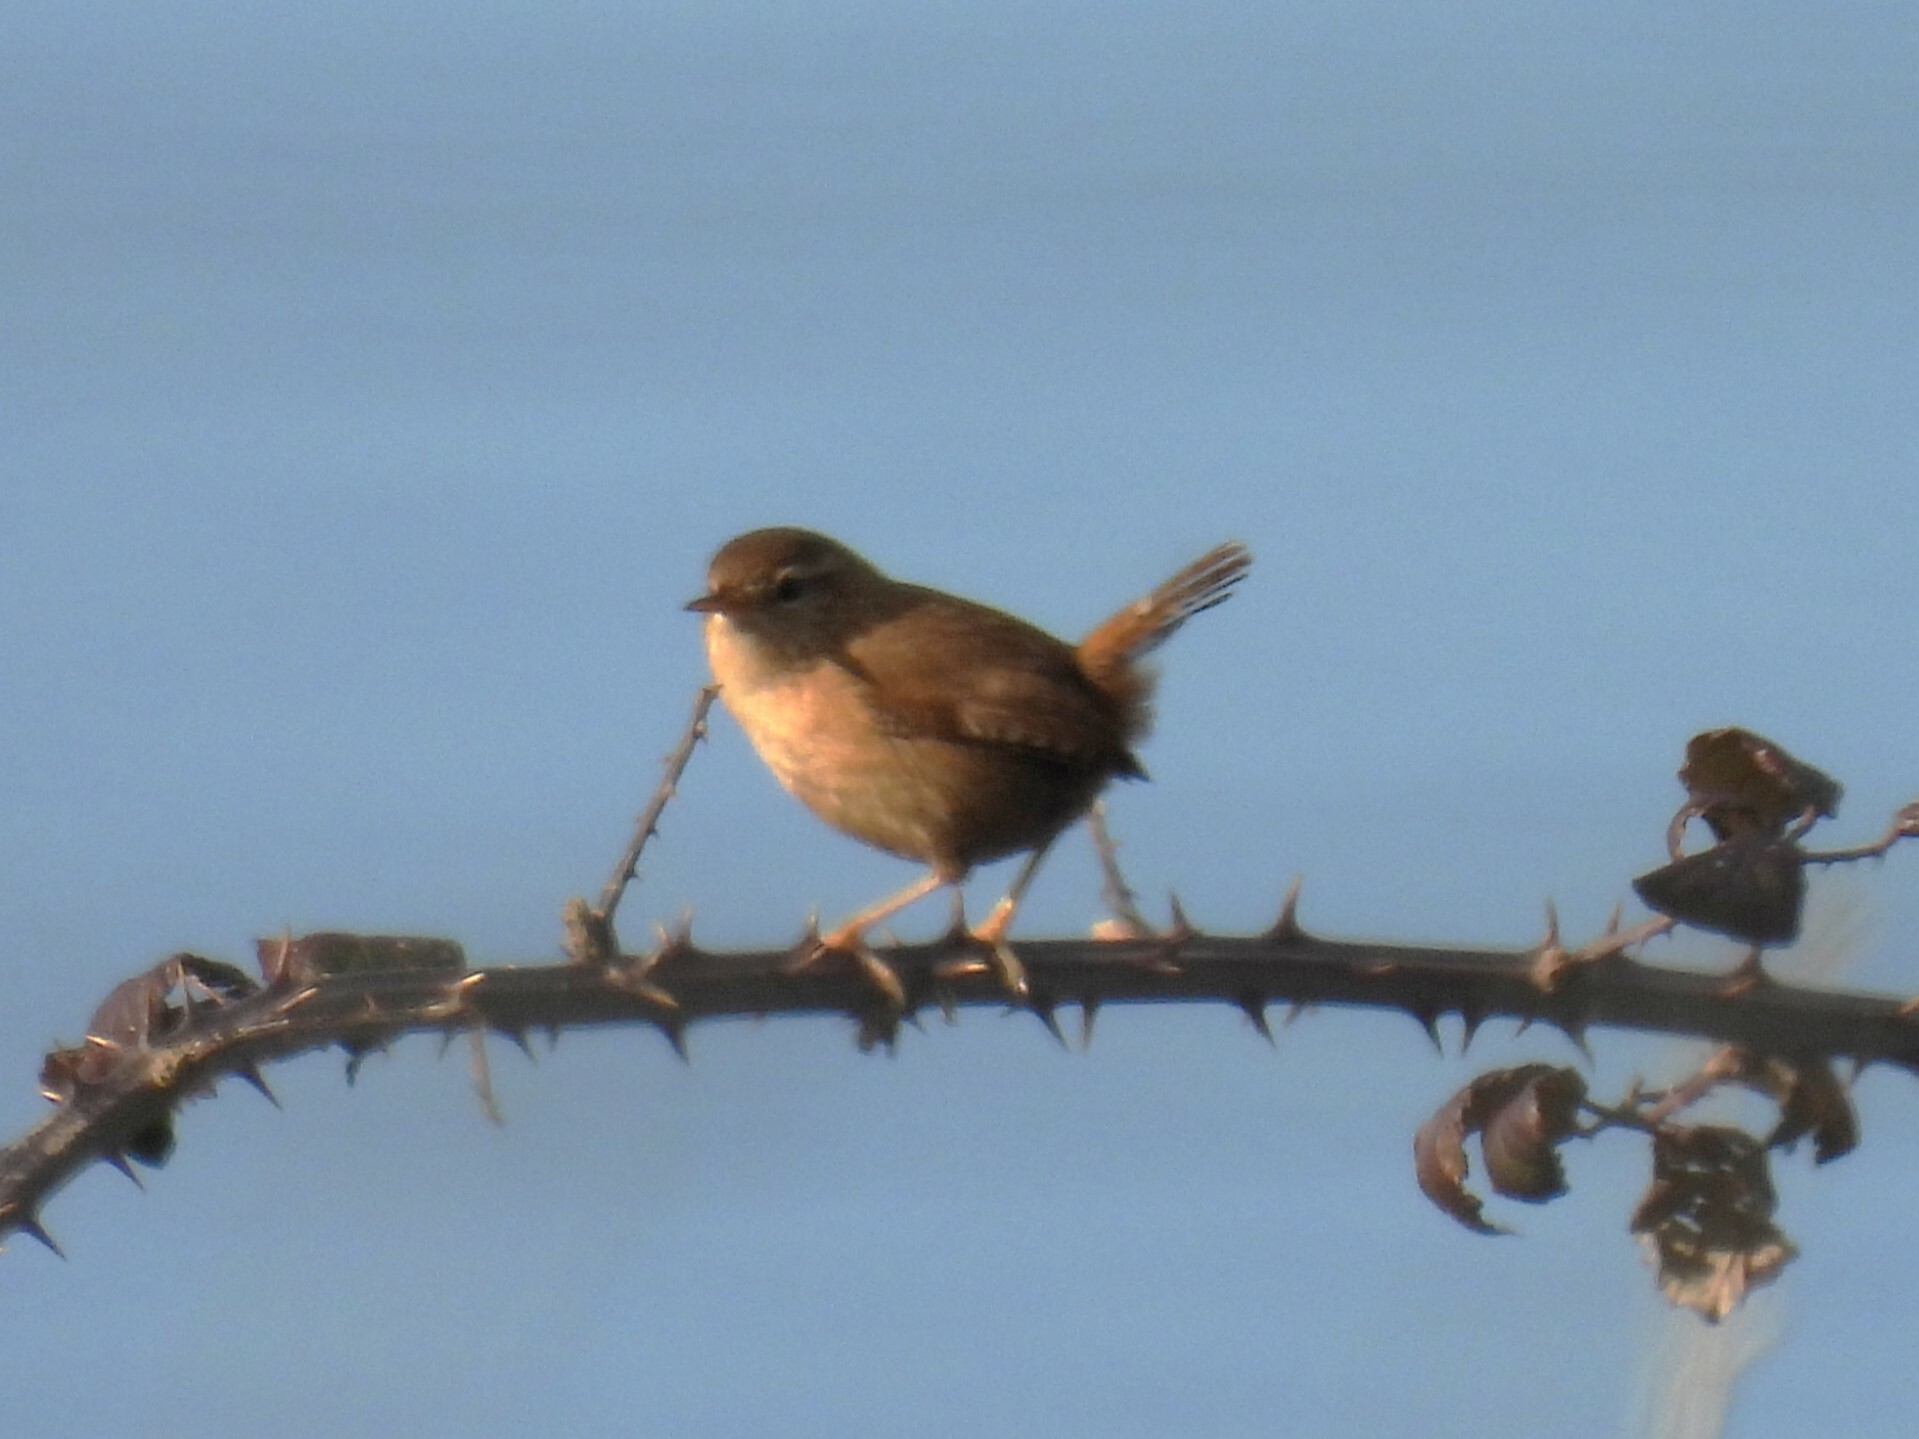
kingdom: Animalia
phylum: Chordata
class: Aves
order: Passeriformes
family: Troglodytidae
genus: Troglodytes
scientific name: Troglodytes troglodytes
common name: Eurasian wren
